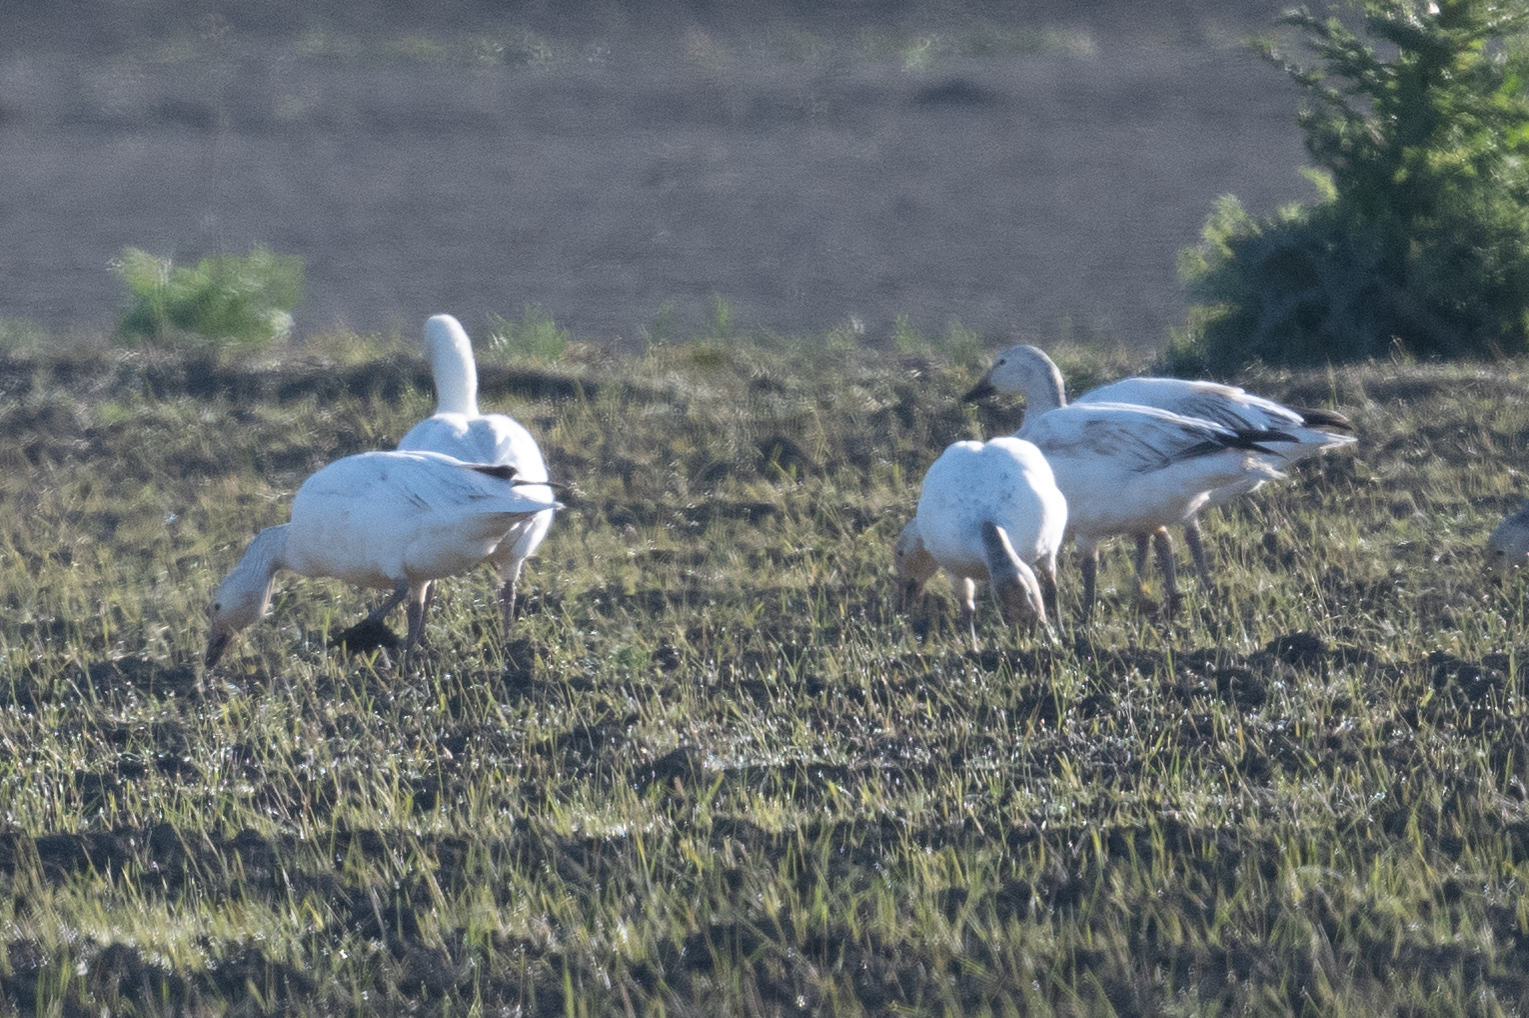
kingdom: Animalia
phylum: Chordata
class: Aves
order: Anseriformes
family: Anatidae
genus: Anser
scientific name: Anser caerulescens
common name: Snow goose
